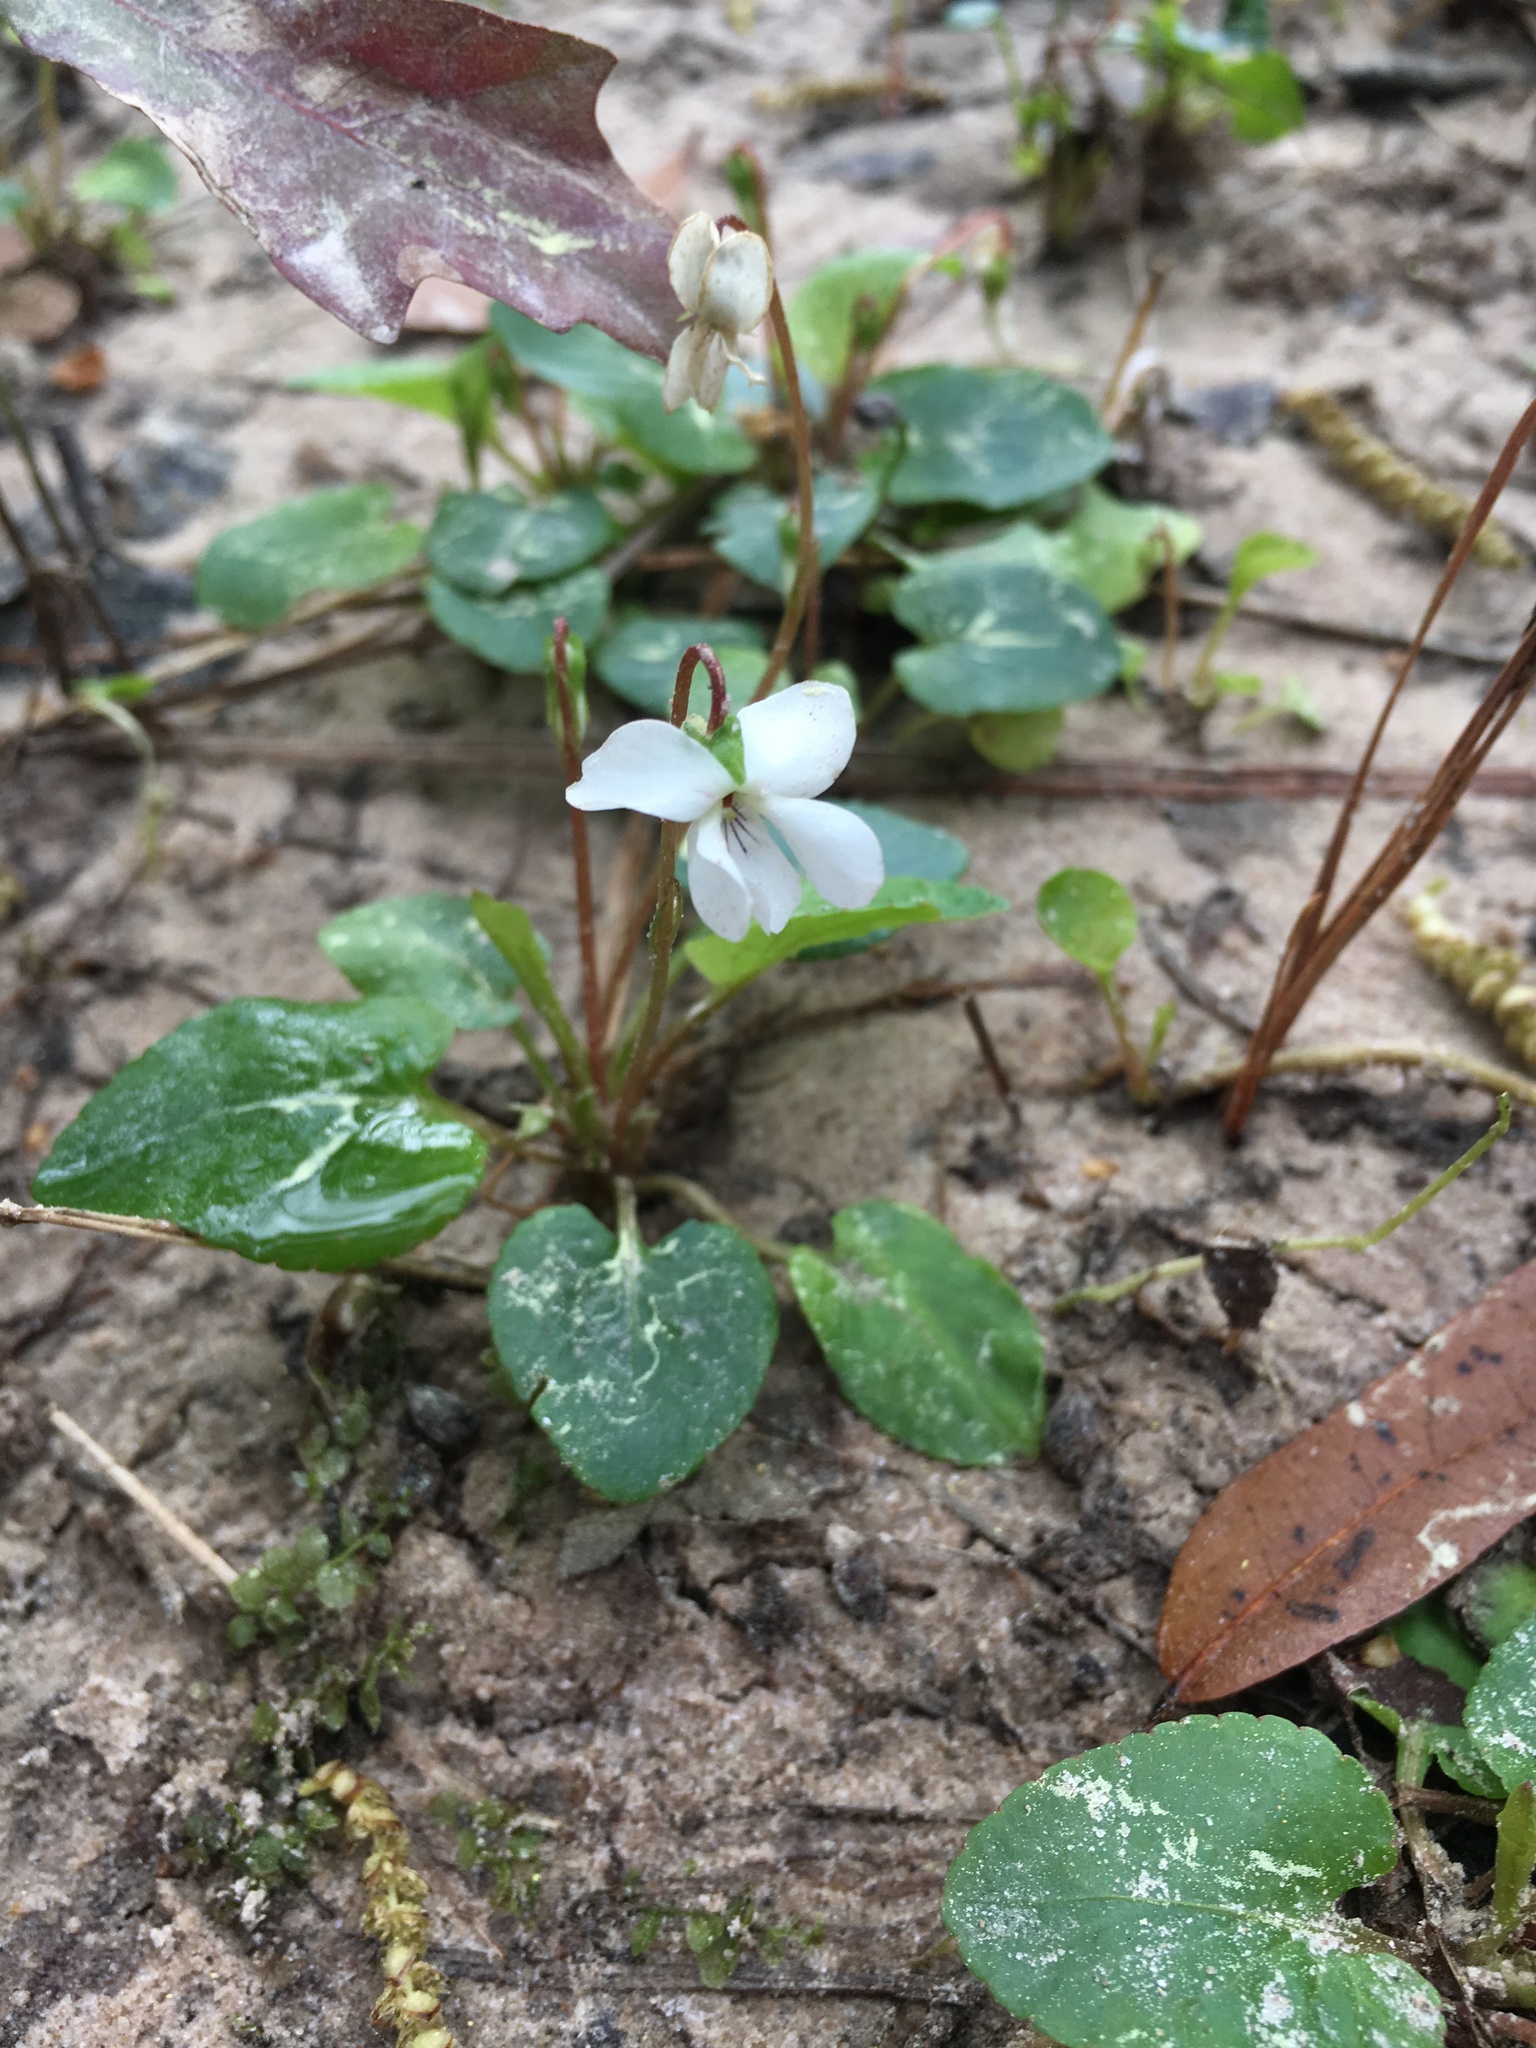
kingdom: Plantae
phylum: Tracheophyta
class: Magnoliopsida
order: Malpighiales
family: Violaceae
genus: Viola
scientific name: Viola primulifolia
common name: Primrose-leaf violet
